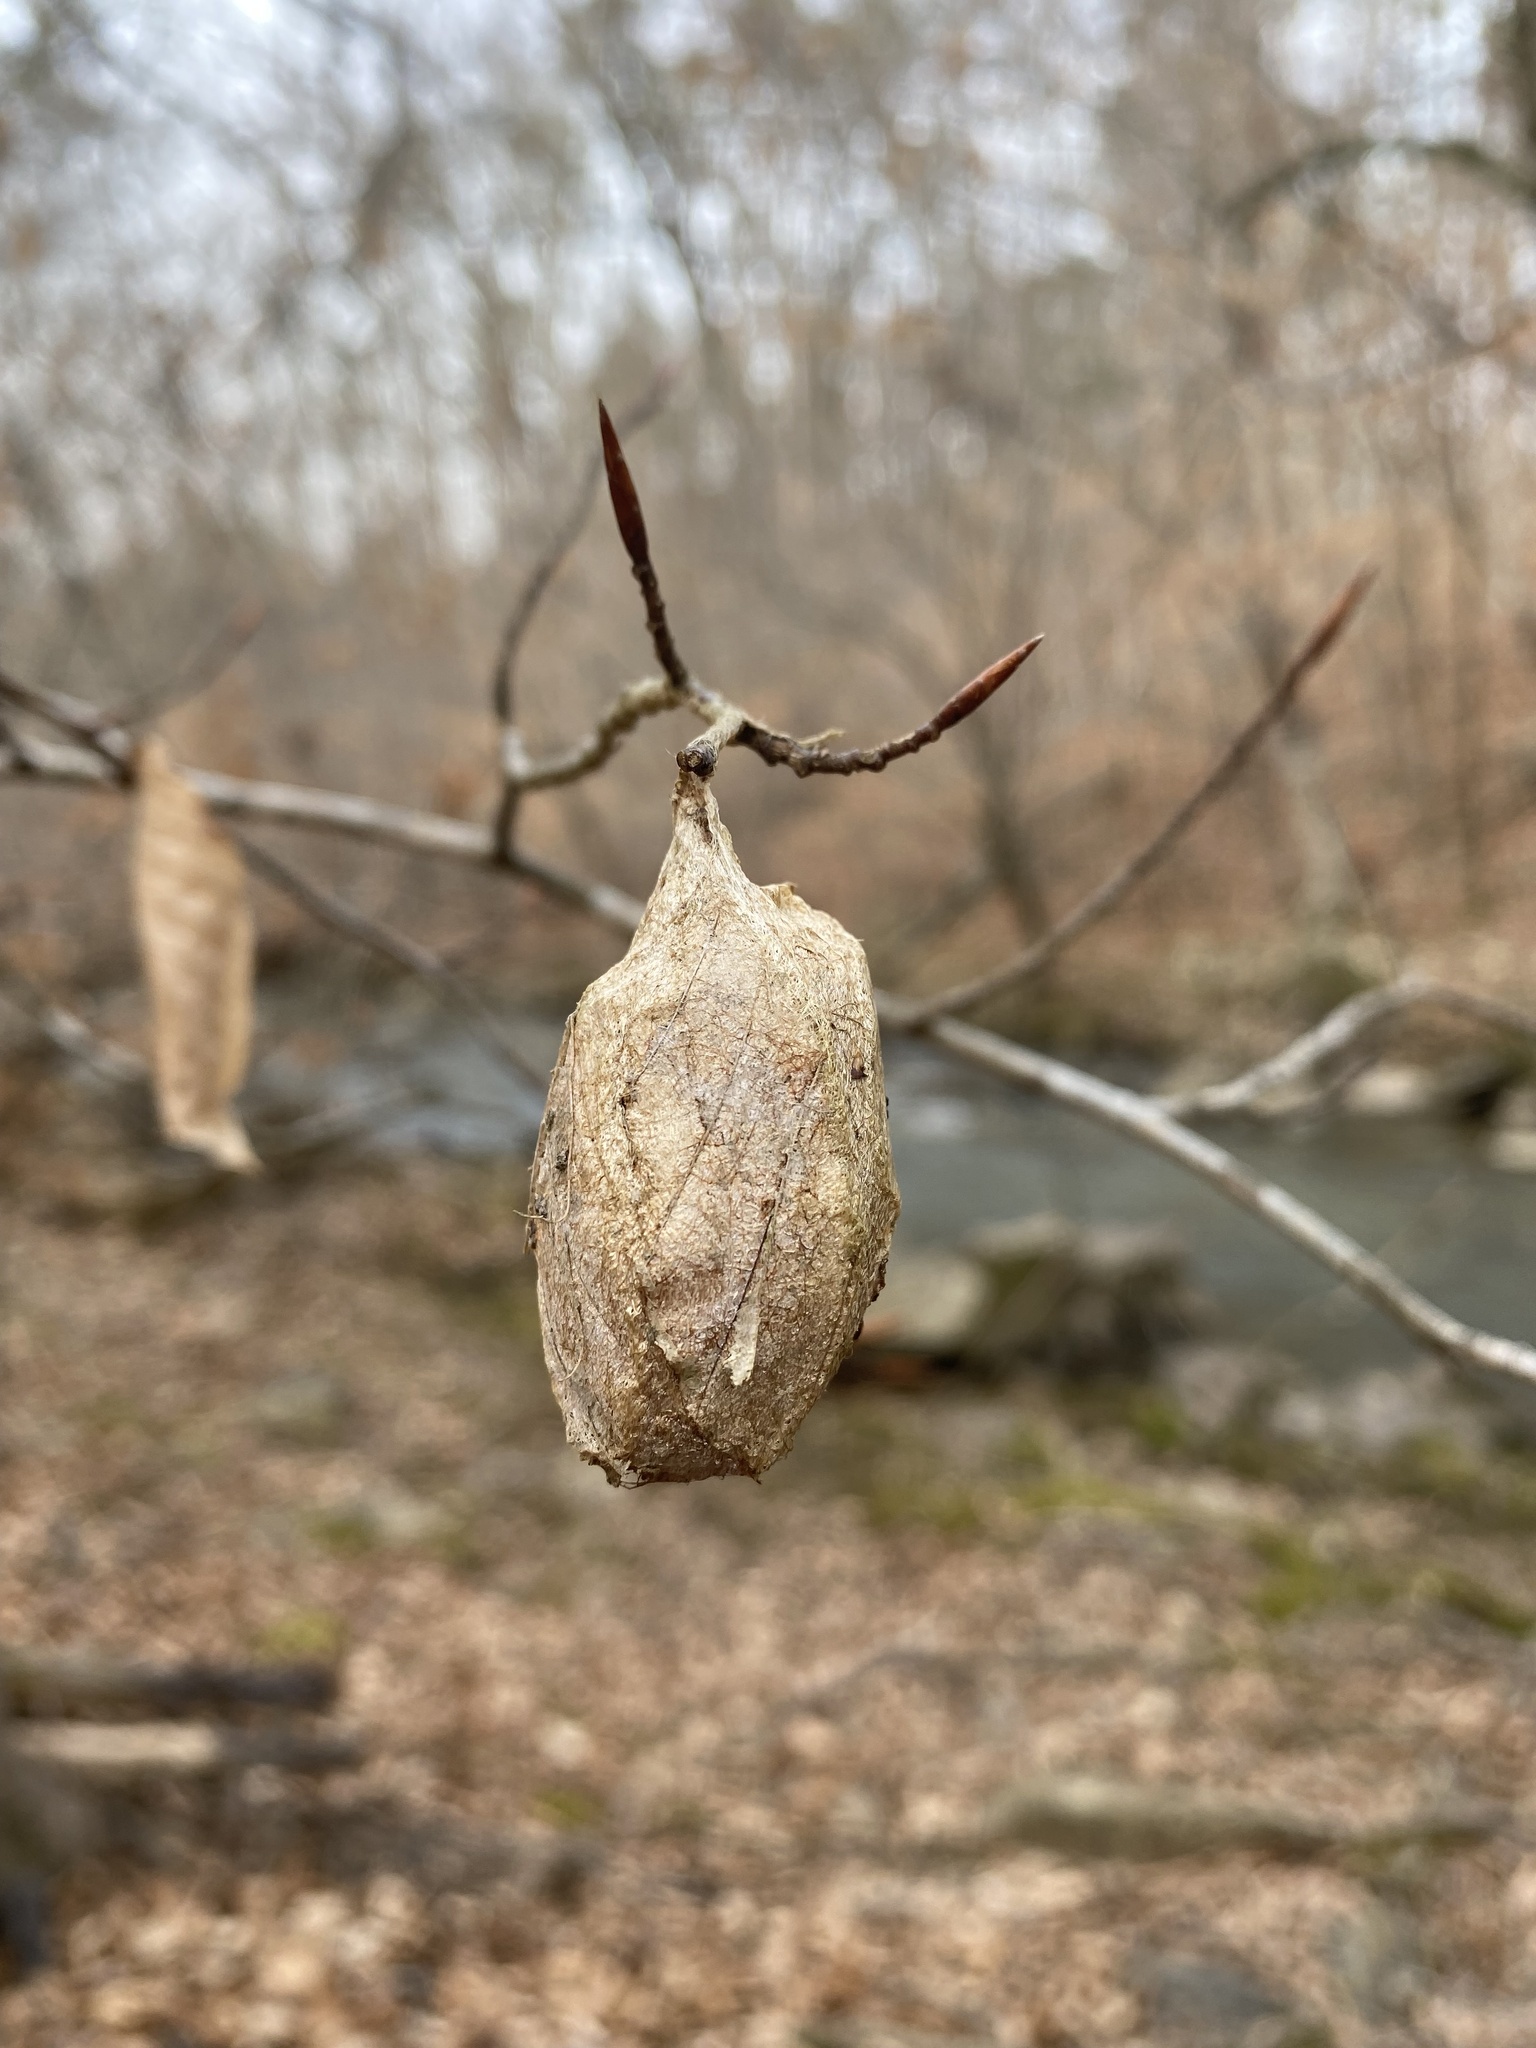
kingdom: Animalia
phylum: Arthropoda
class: Insecta
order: Lepidoptera
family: Saturniidae
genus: Antheraea
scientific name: Antheraea polyphemus
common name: Polyphemus moth
